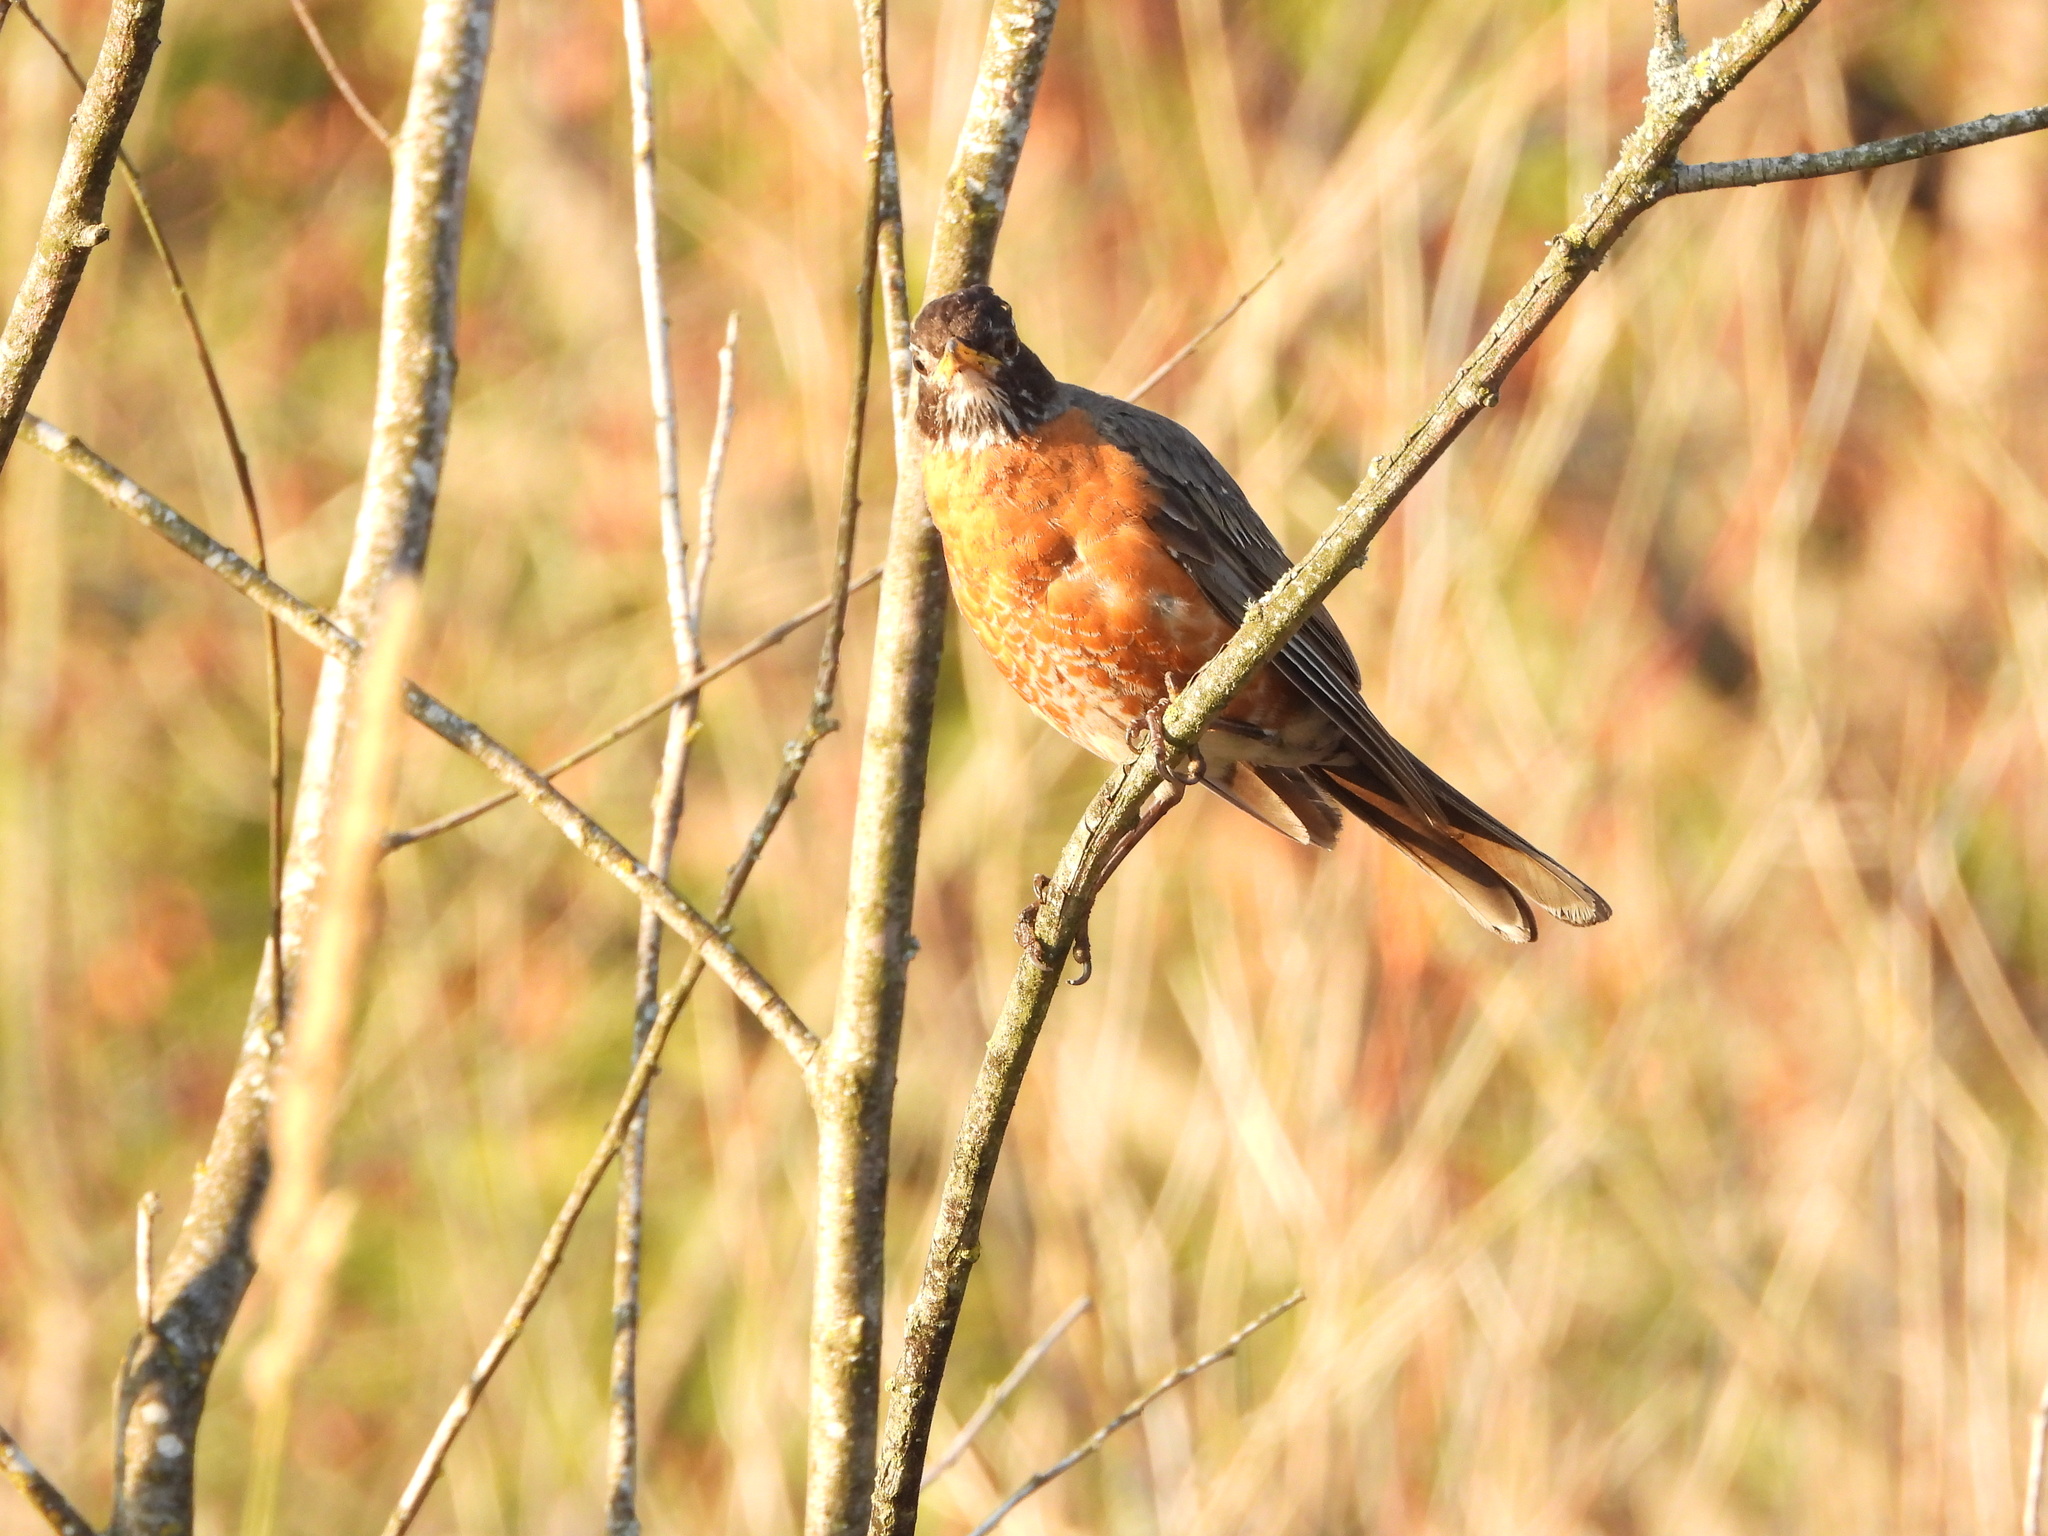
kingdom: Animalia
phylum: Chordata
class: Aves
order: Passeriformes
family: Turdidae
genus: Turdus
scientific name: Turdus migratorius
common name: American robin
